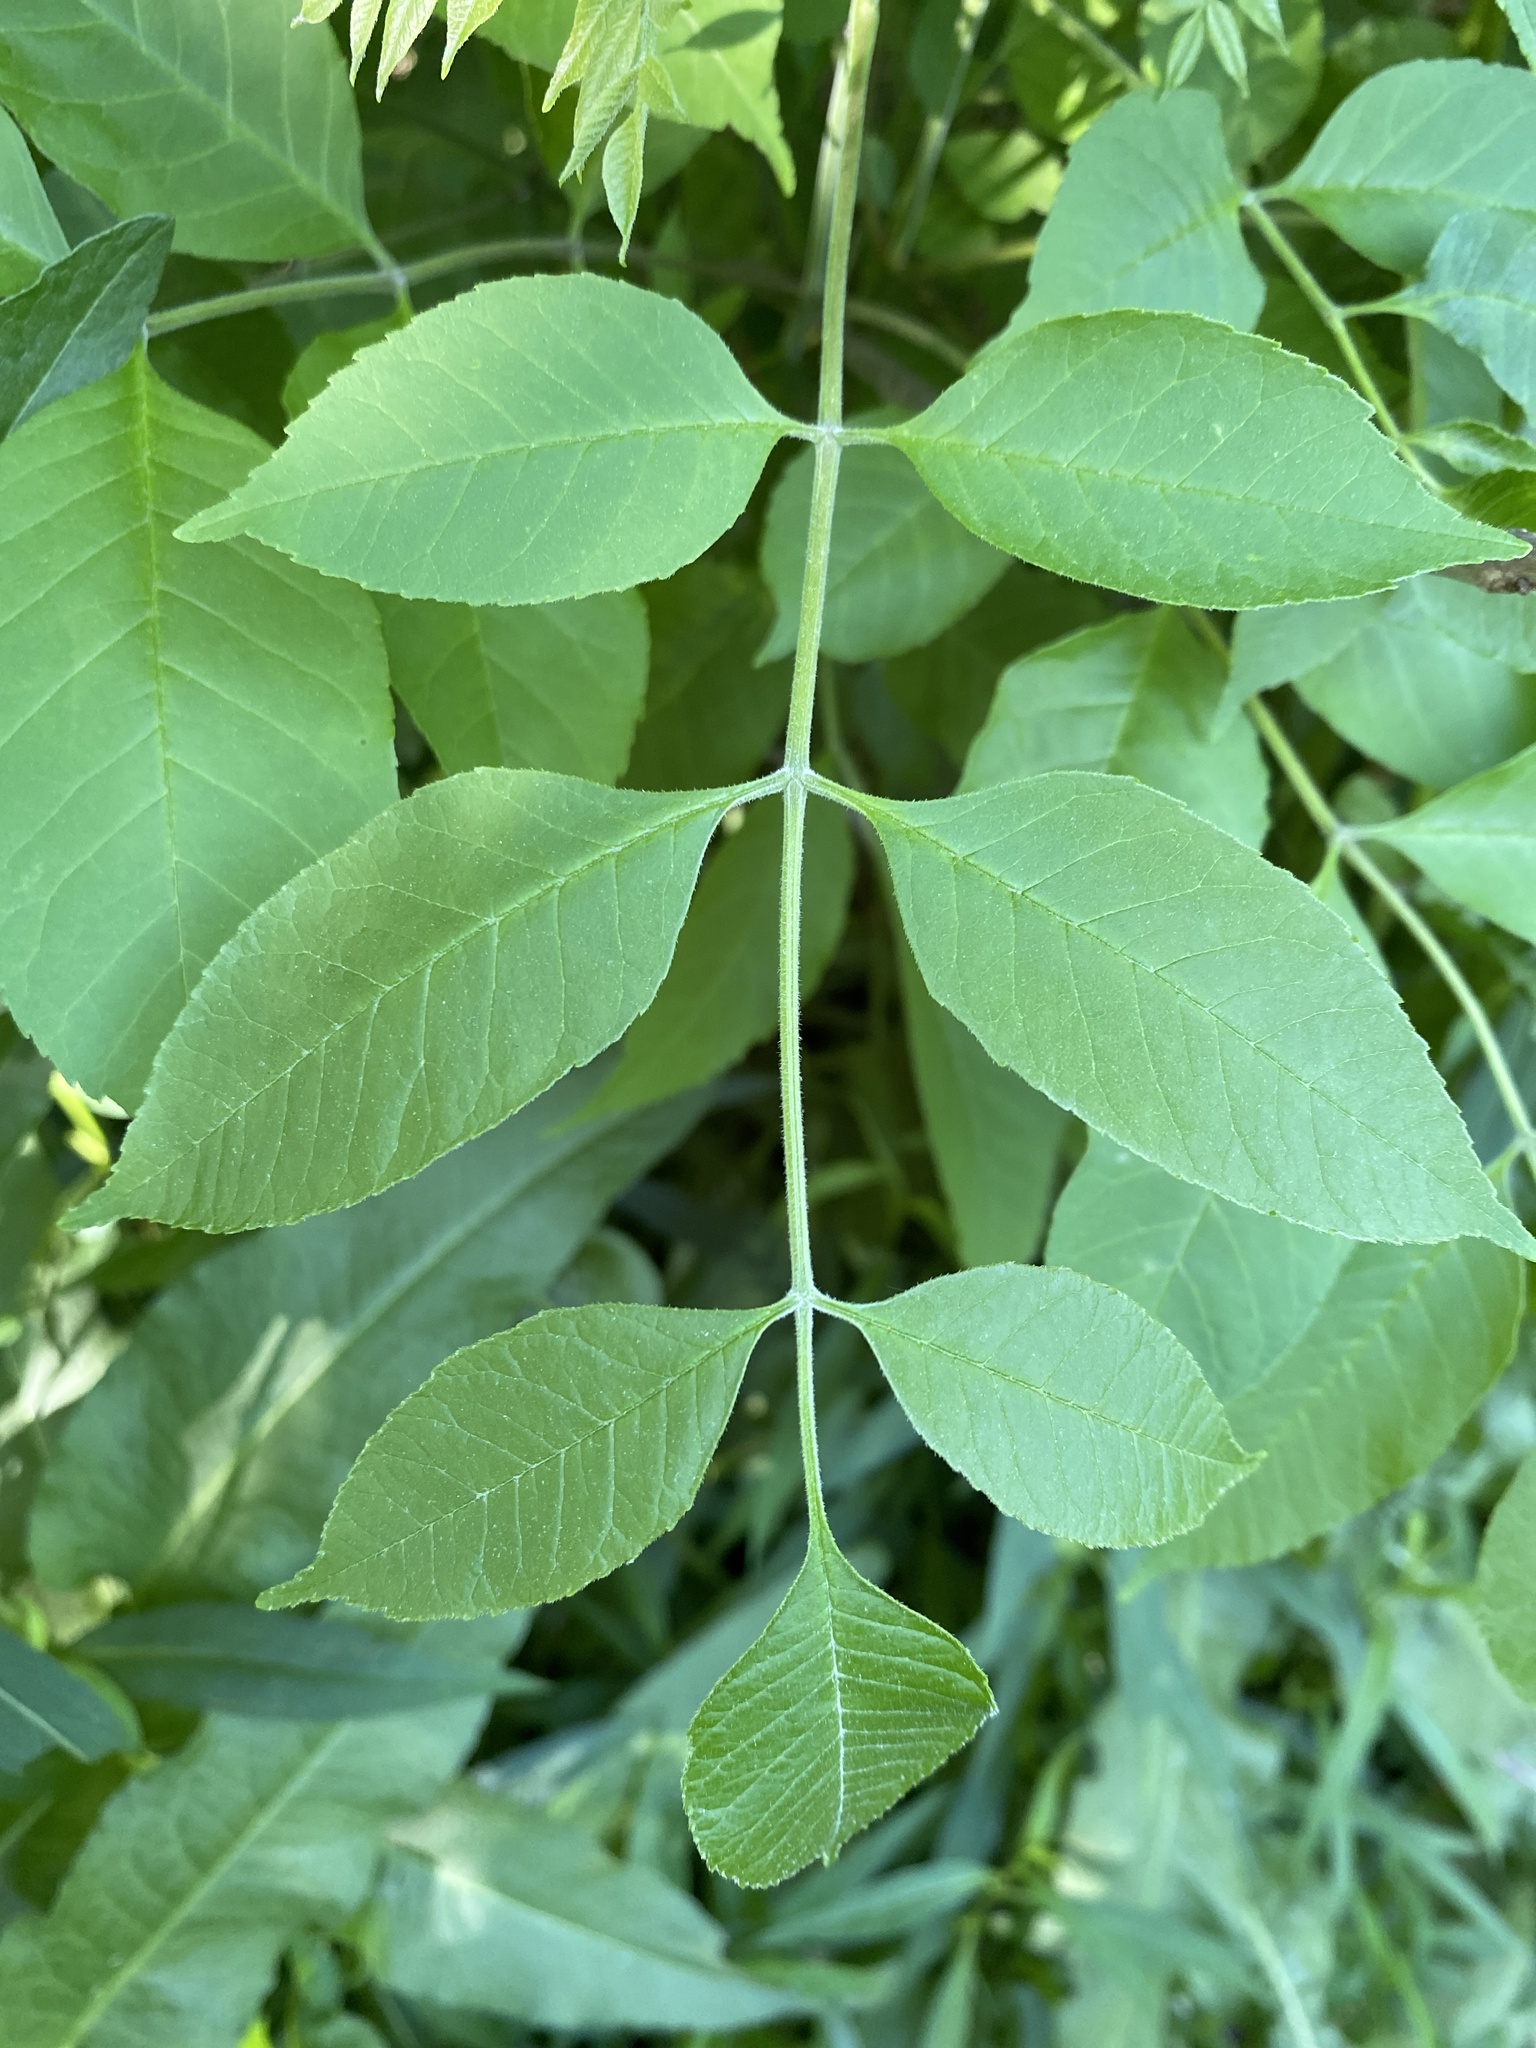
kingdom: Plantae
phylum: Tracheophyta
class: Magnoliopsida
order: Lamiales
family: Oleaceae
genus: Fraxinus
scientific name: Fraxinus pennsylvanica
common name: Green ash
